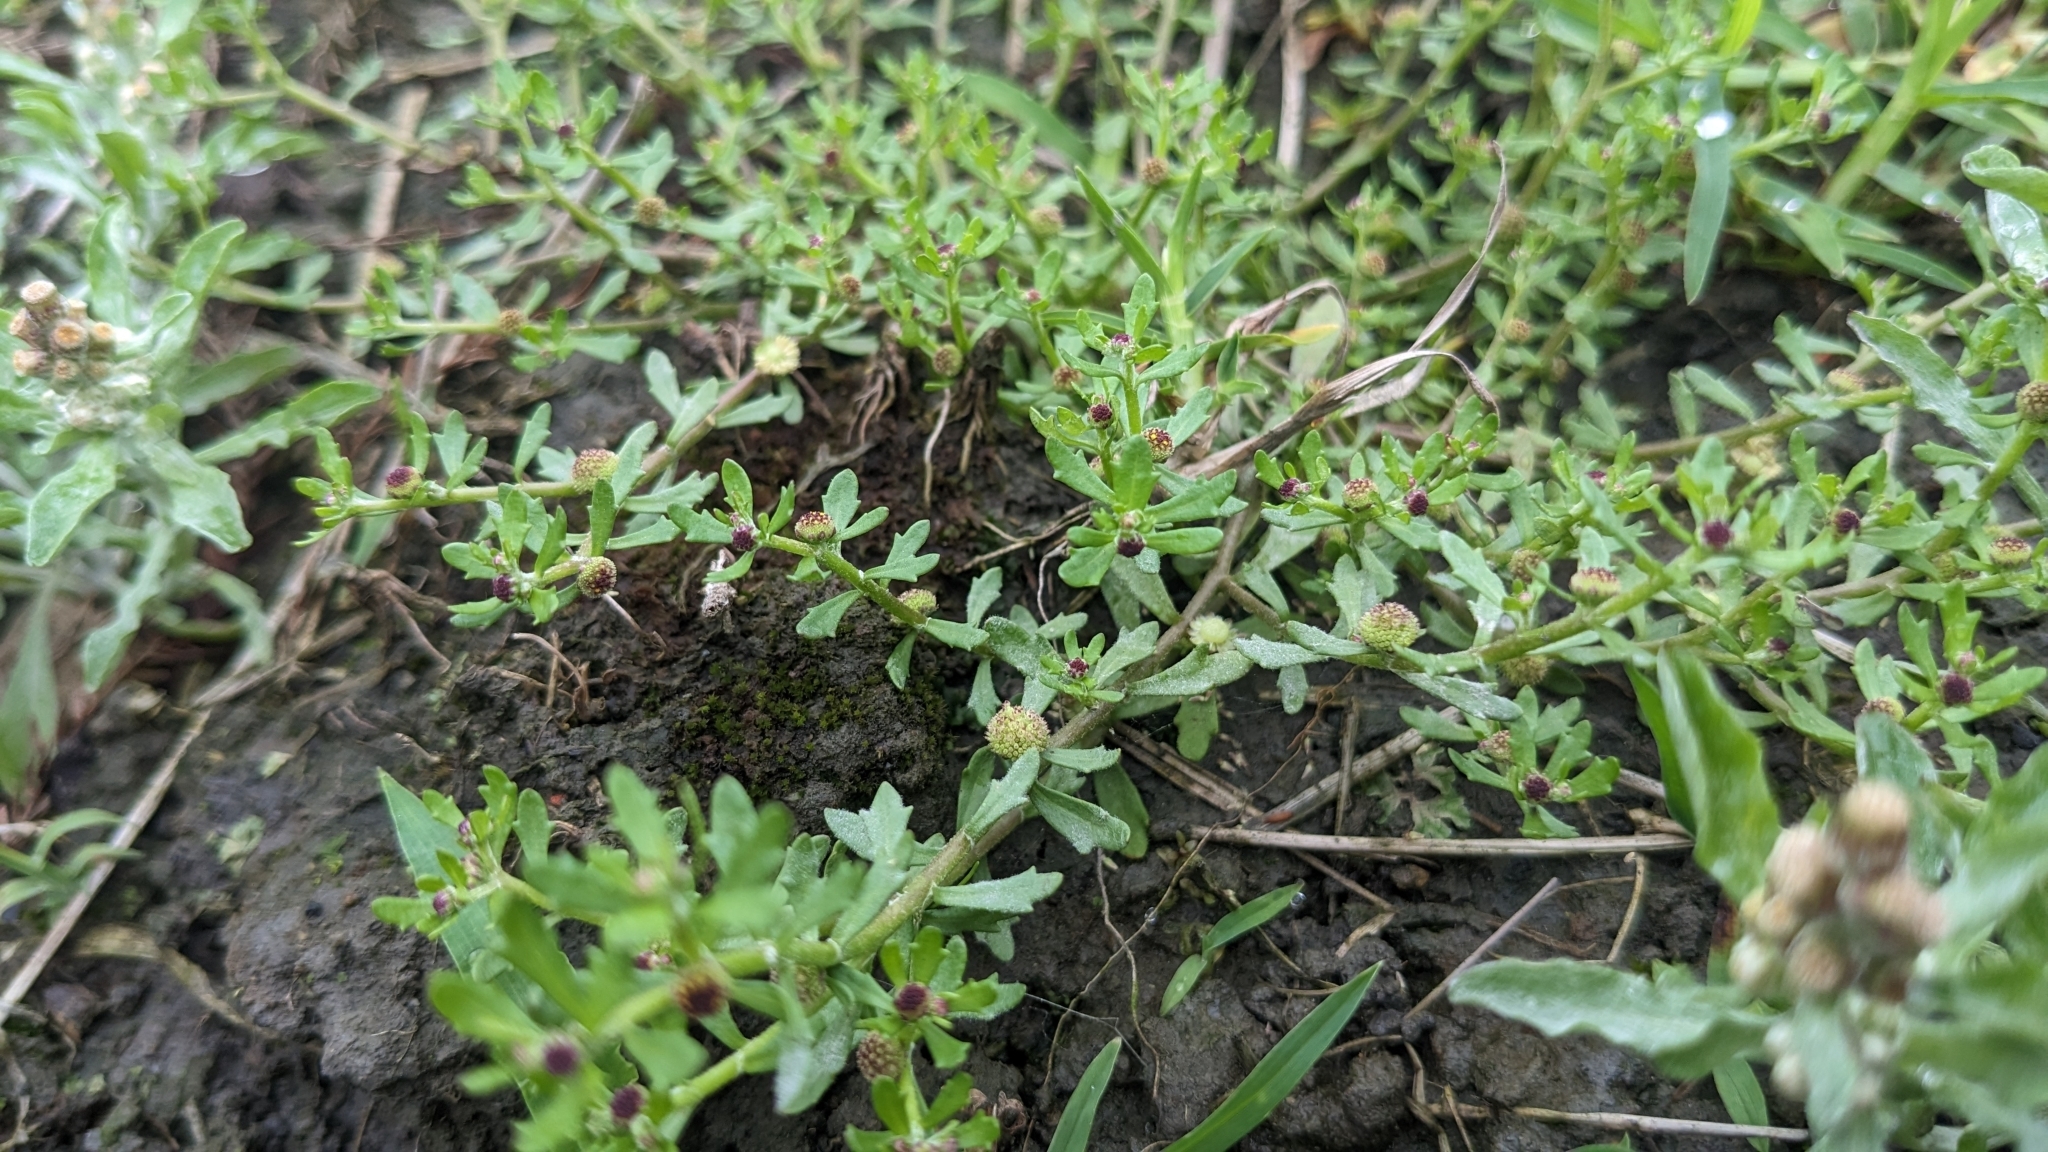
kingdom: Plantae
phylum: Tracheophyta
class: Magnoliopsida
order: Asterales
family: Asteraceae
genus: Centipeda
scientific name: Centipeda minima
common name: Spreading sneezeweed
